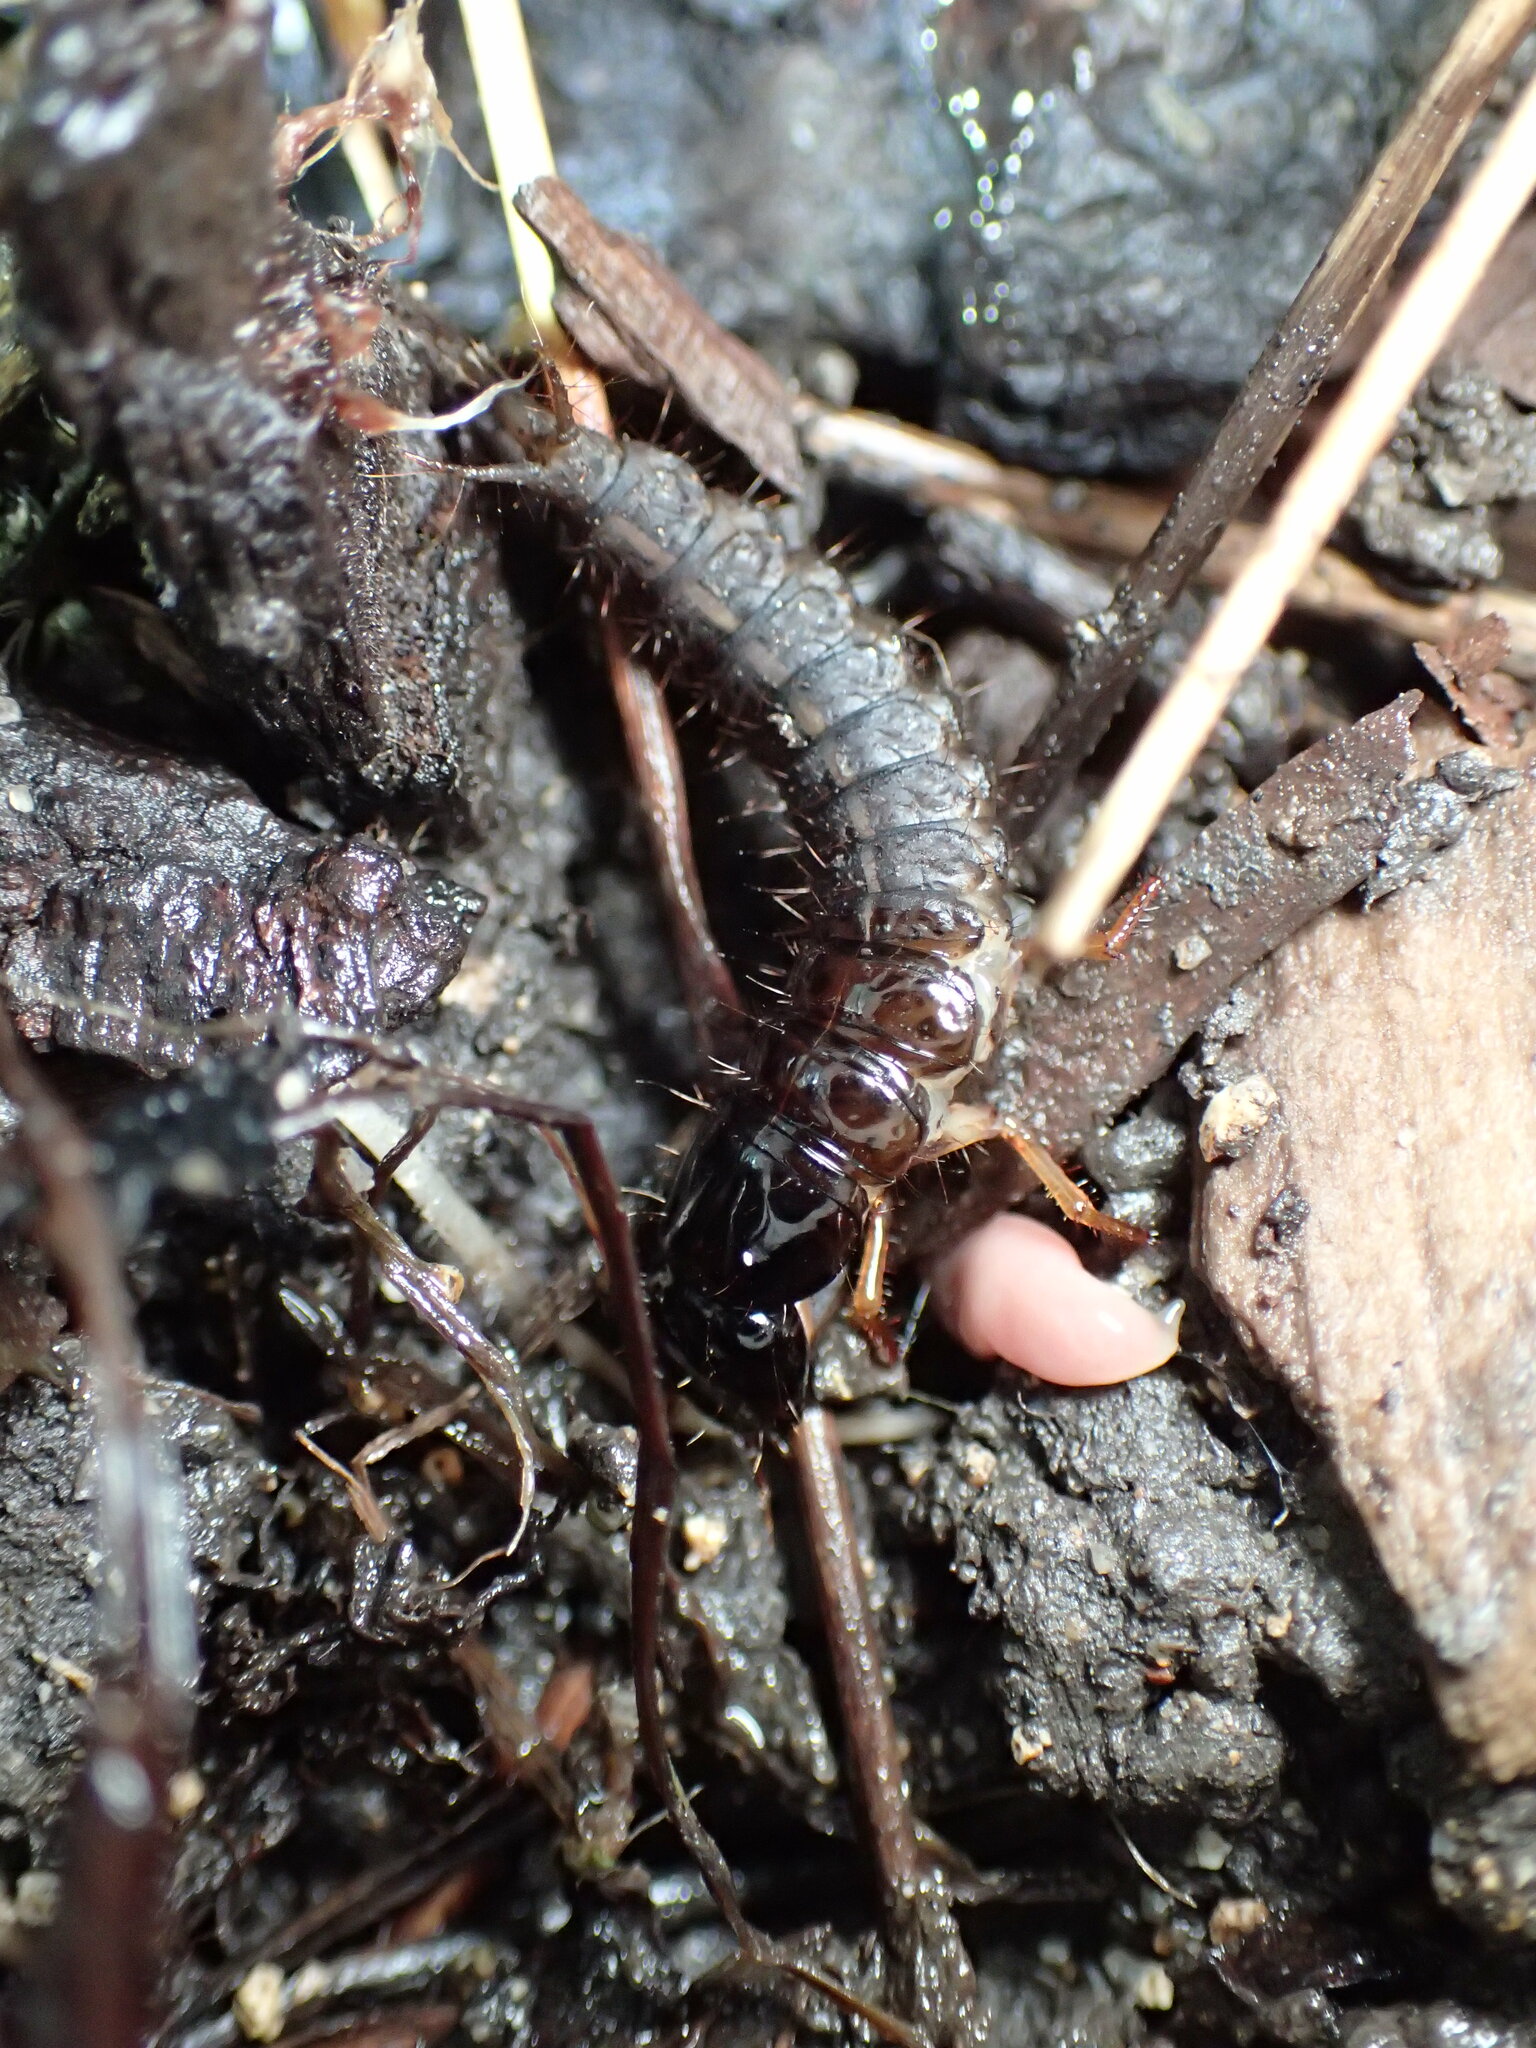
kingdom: Animalia
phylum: Arthropoda
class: Insecta
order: Coleoptera
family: Staphylinidae
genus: Ocypus
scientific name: Ocypus olens
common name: Devil's coach-horse
